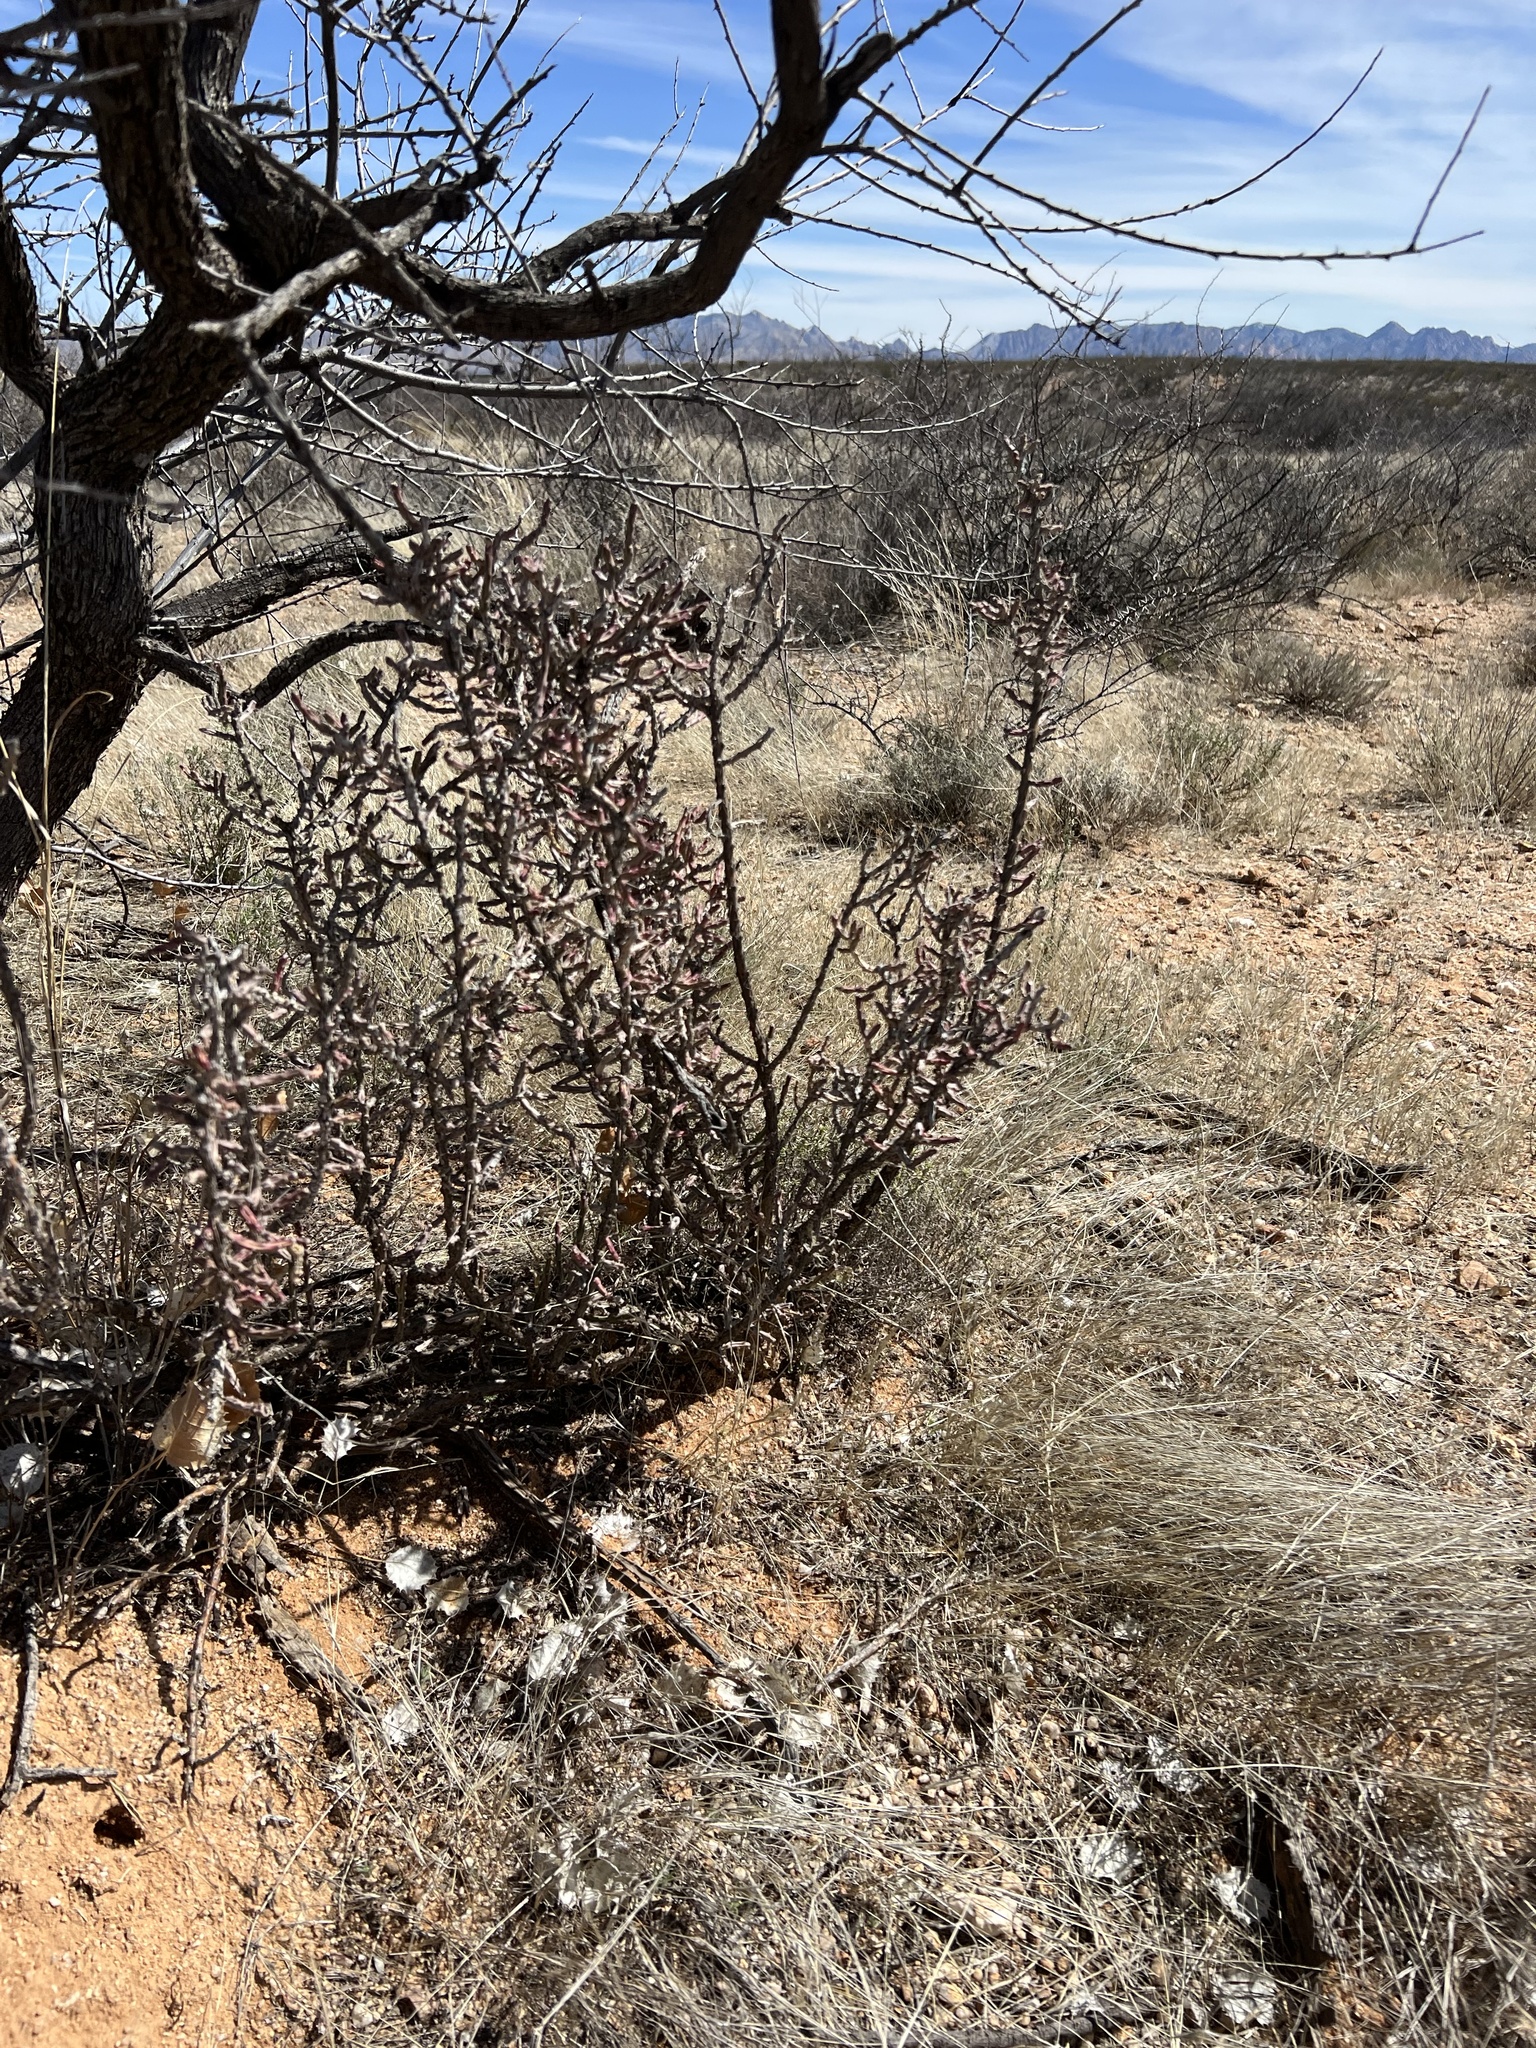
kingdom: Plantae
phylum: Tracheophyta
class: Magnoliopsida
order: Caryophyllales
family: Cactaceae
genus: Cylindropuntia
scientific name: Cylindropuntia leptocaulis
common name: Christmas cactus
